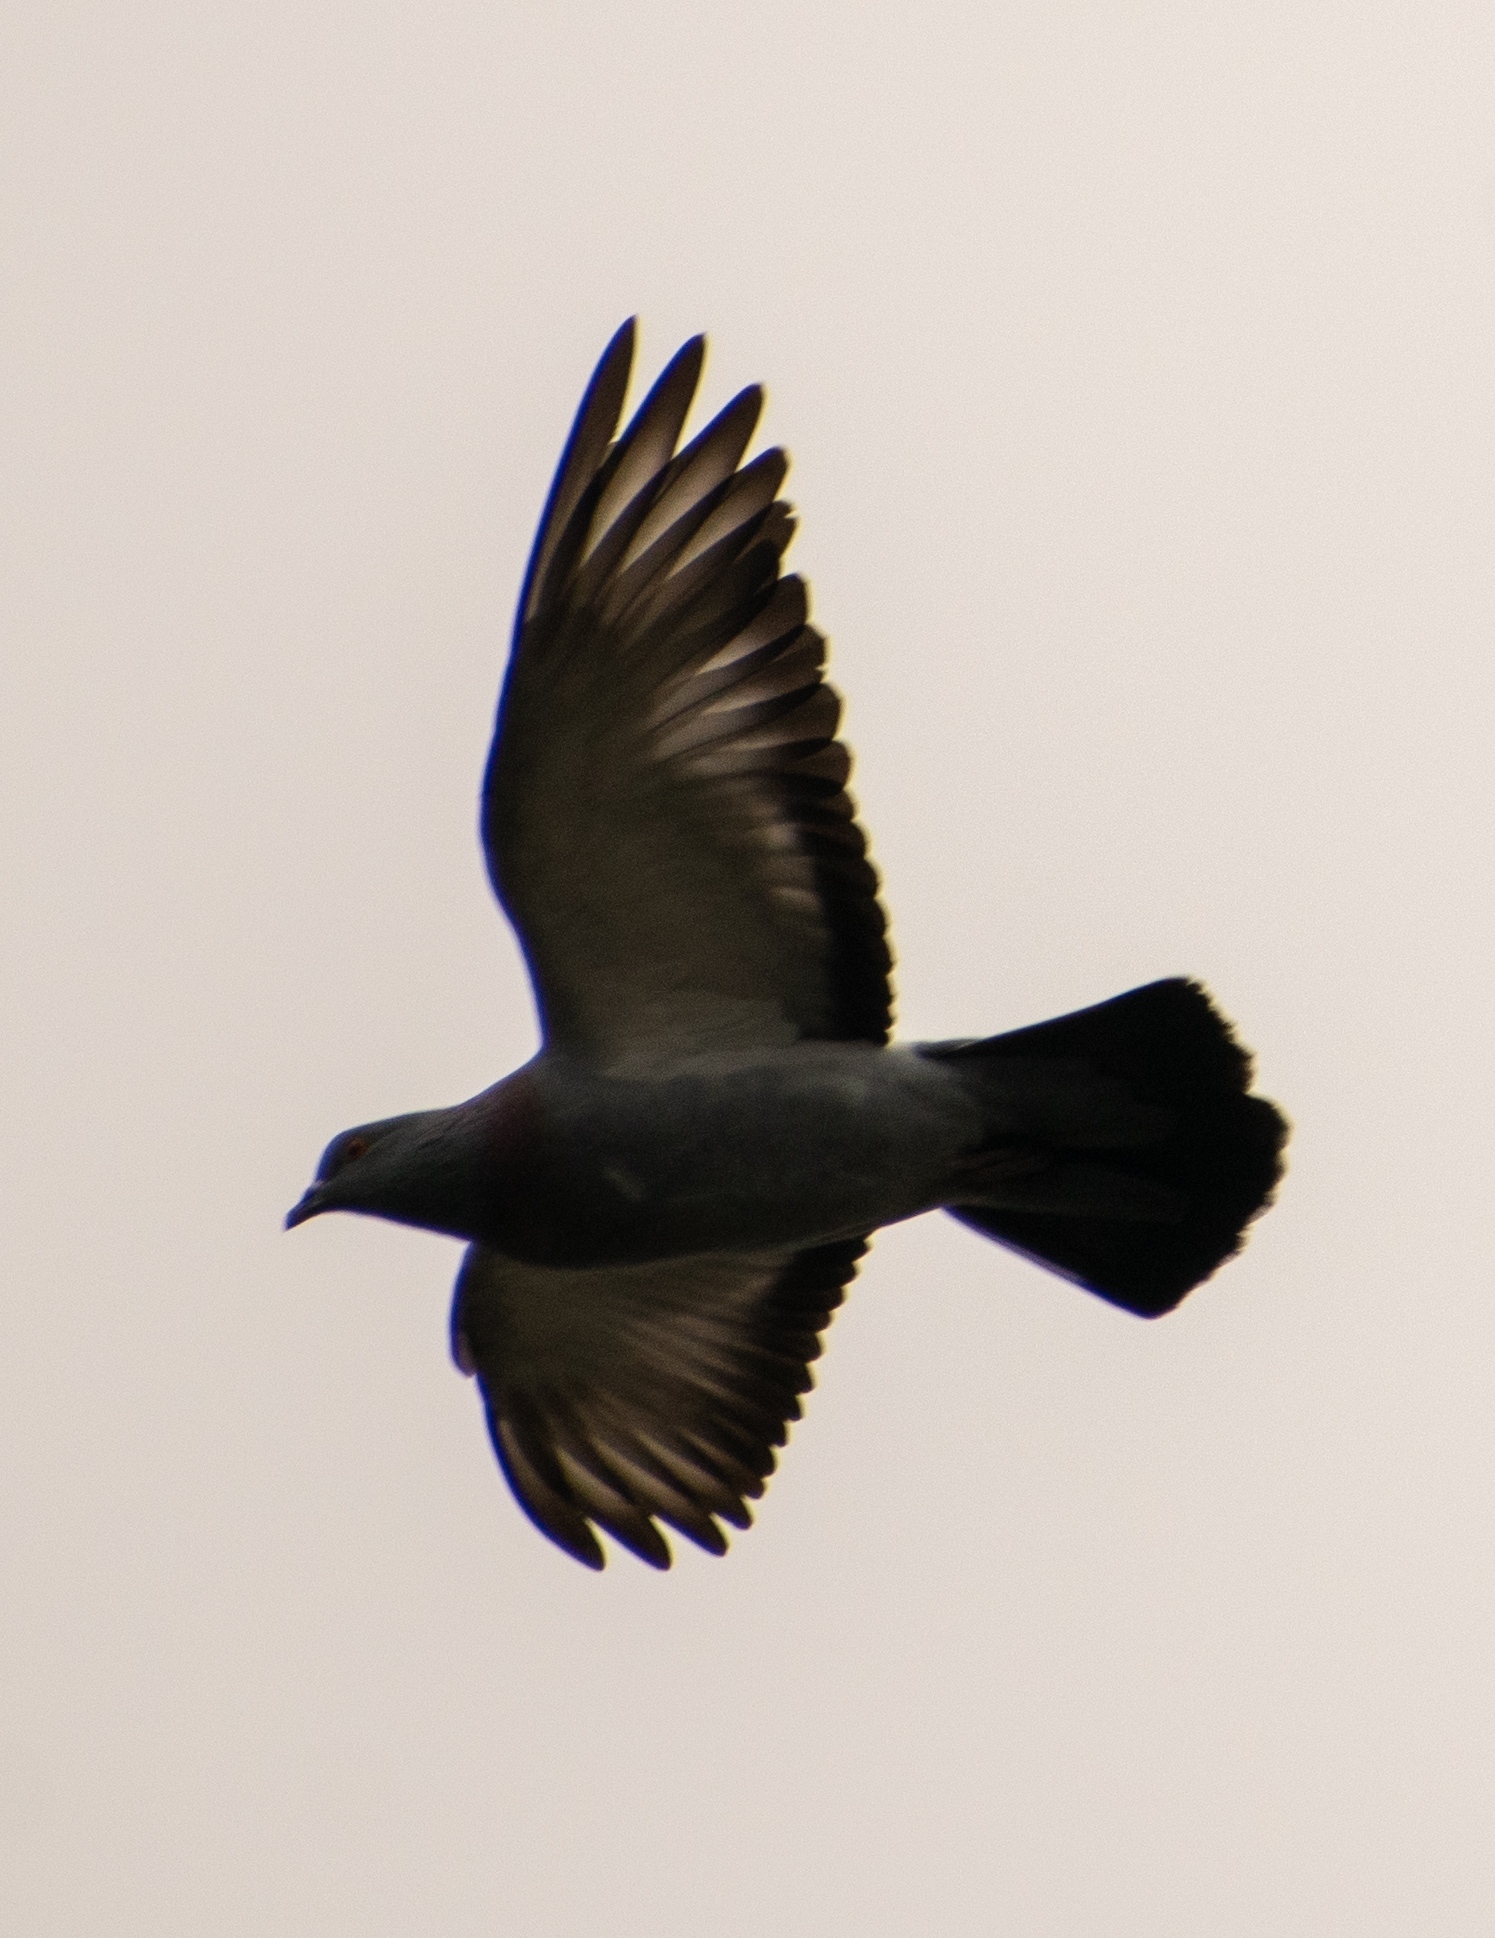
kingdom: Animalia
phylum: Chordata
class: Aves
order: Columbiformes
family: Columbidae
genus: Columba
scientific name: Columba livia
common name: Rock pigeon
